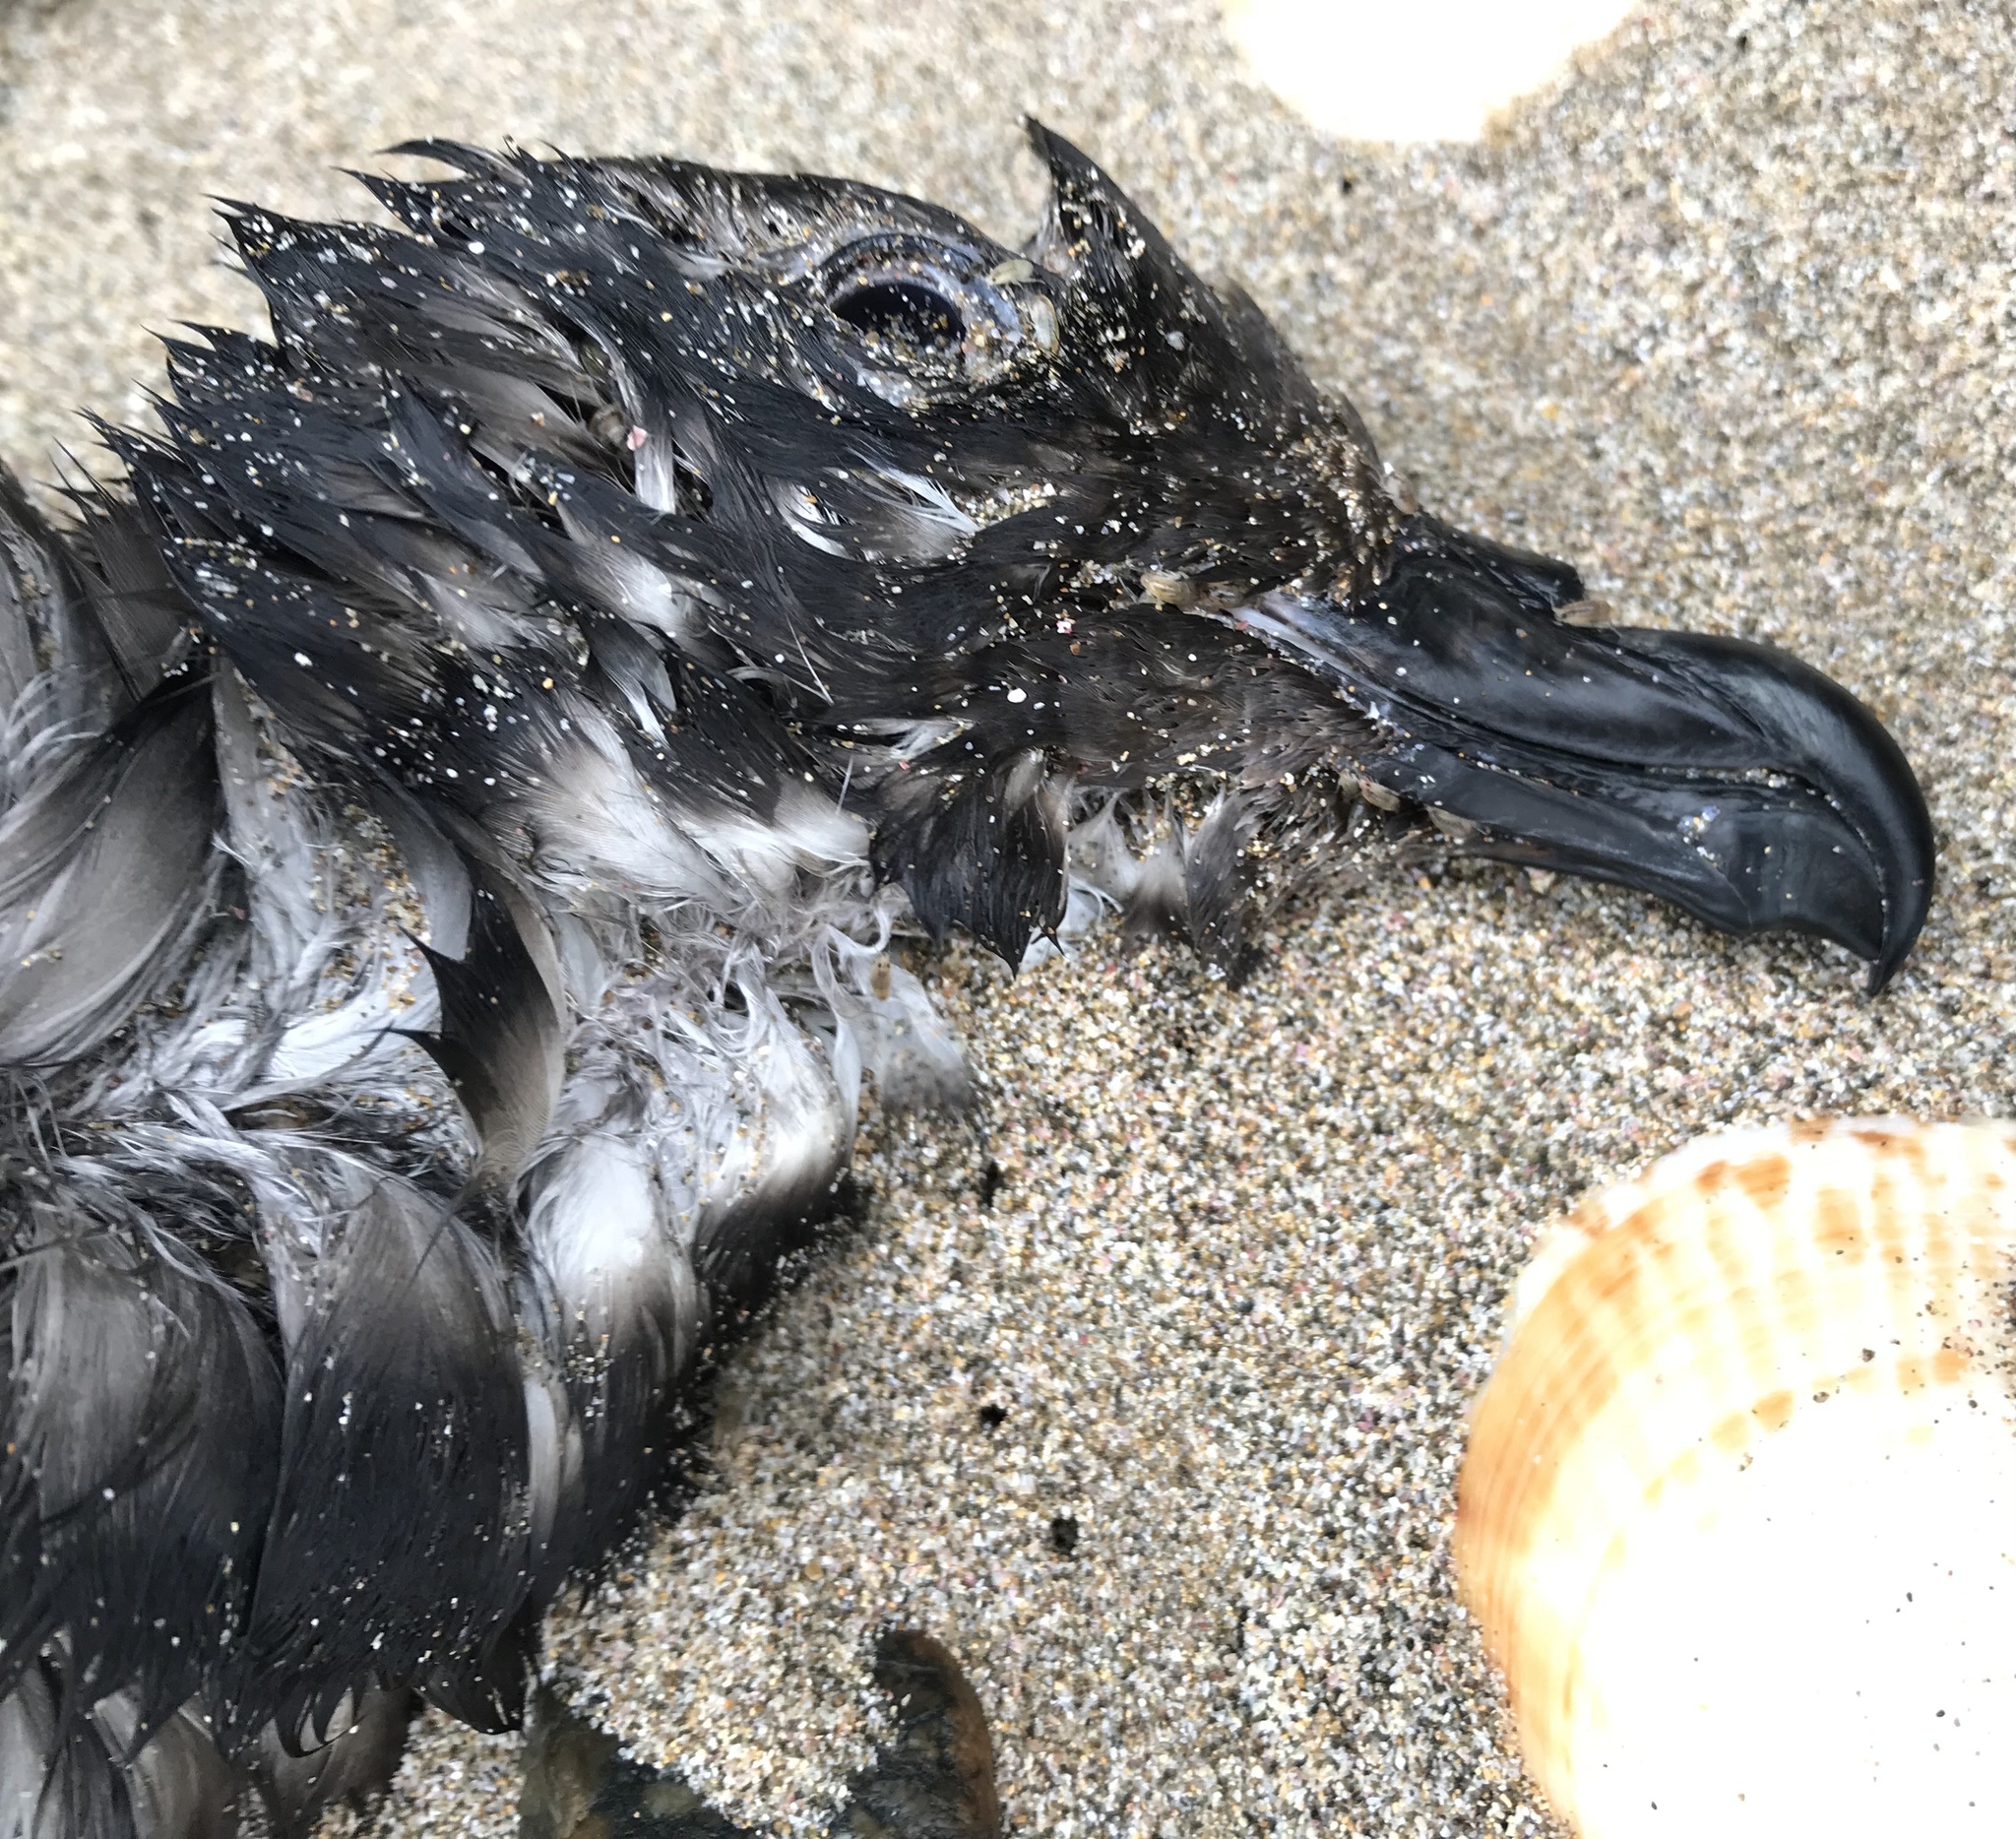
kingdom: Animalia
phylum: Chordata
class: Aves
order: Procellariiformes
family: Procellariidae
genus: Pterodroma
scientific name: Pterodroma macroptera
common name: Great-winged petrel
